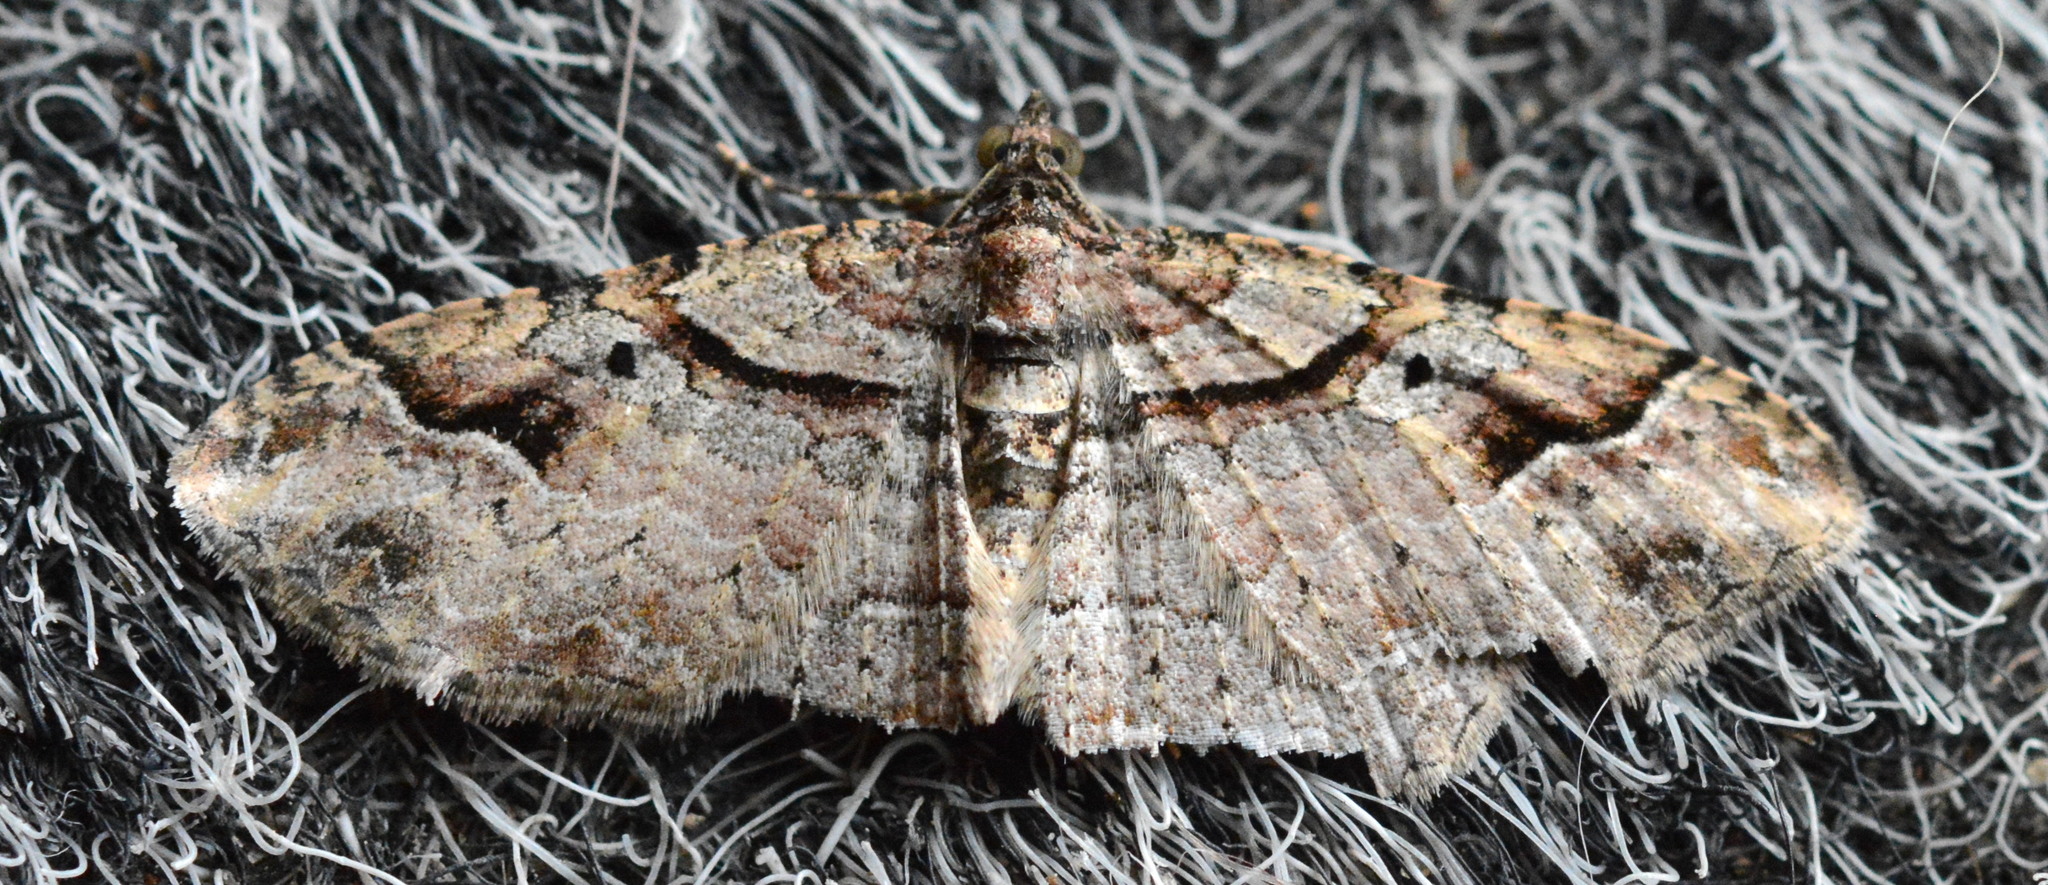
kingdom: Animalia
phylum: Arthropoda
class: Insecta
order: Lepidoptera
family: Geometridae
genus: Costaconvexa
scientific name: Costaconvexa centrostrigaria
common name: Bent-line carpet
